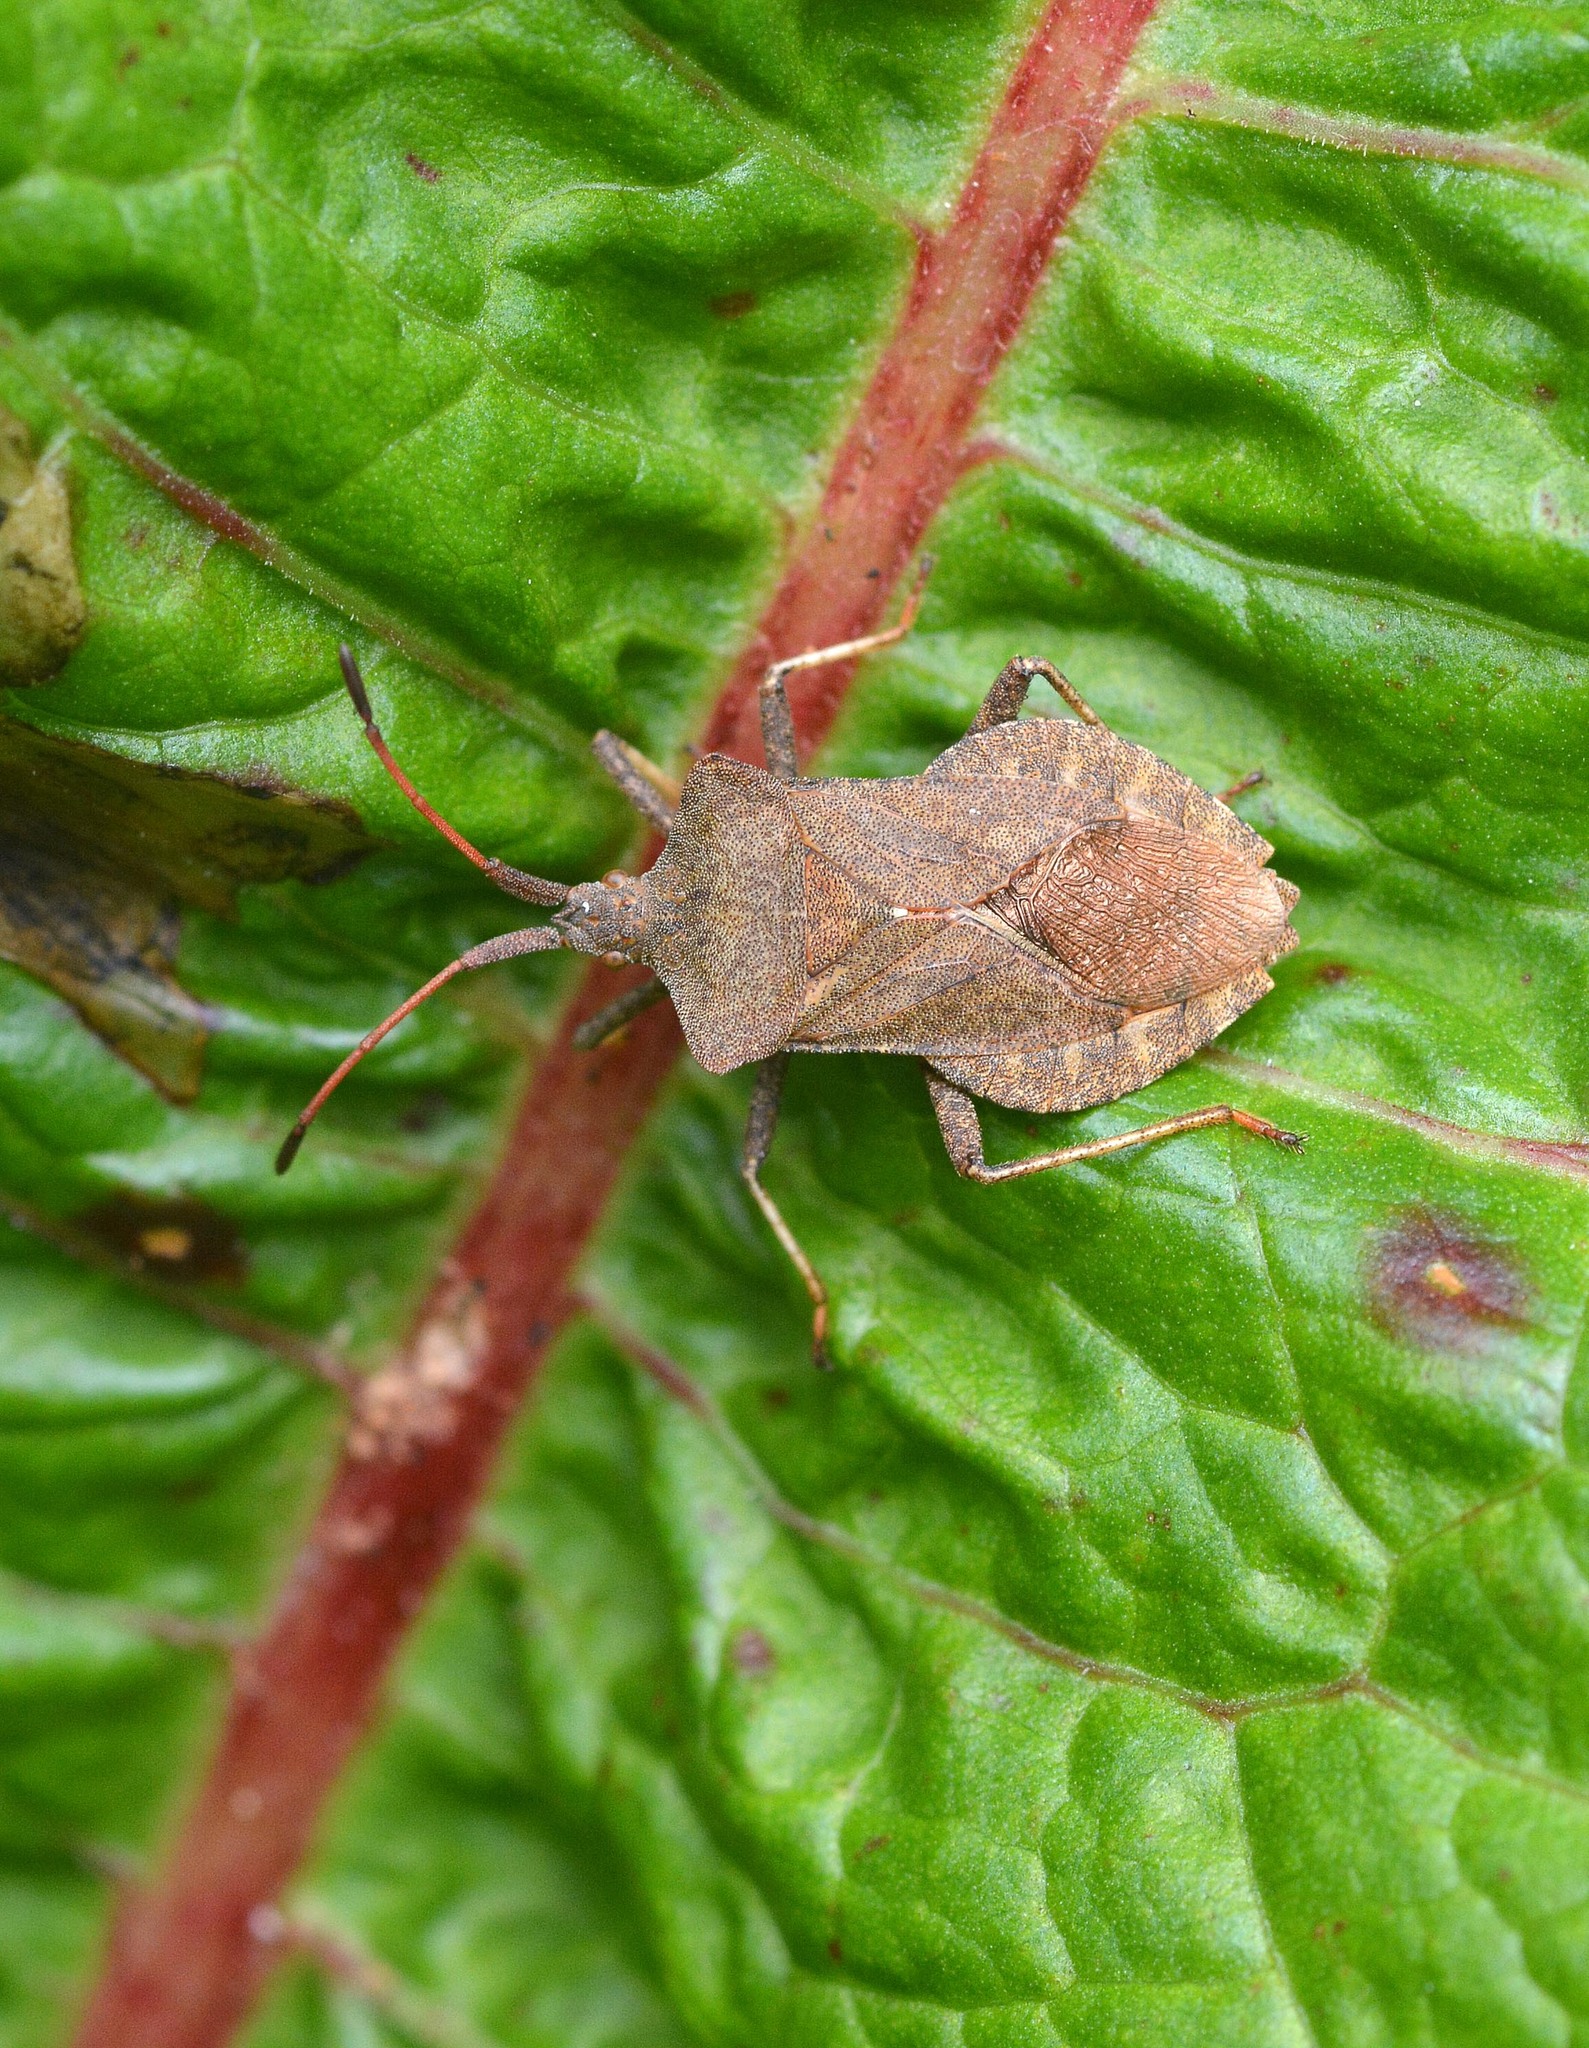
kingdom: Animalia
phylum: Arthropoda
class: Insecta
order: Hemiptera
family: Coreidae
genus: Coreus
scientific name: Coreus marginatus
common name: Dock bug
